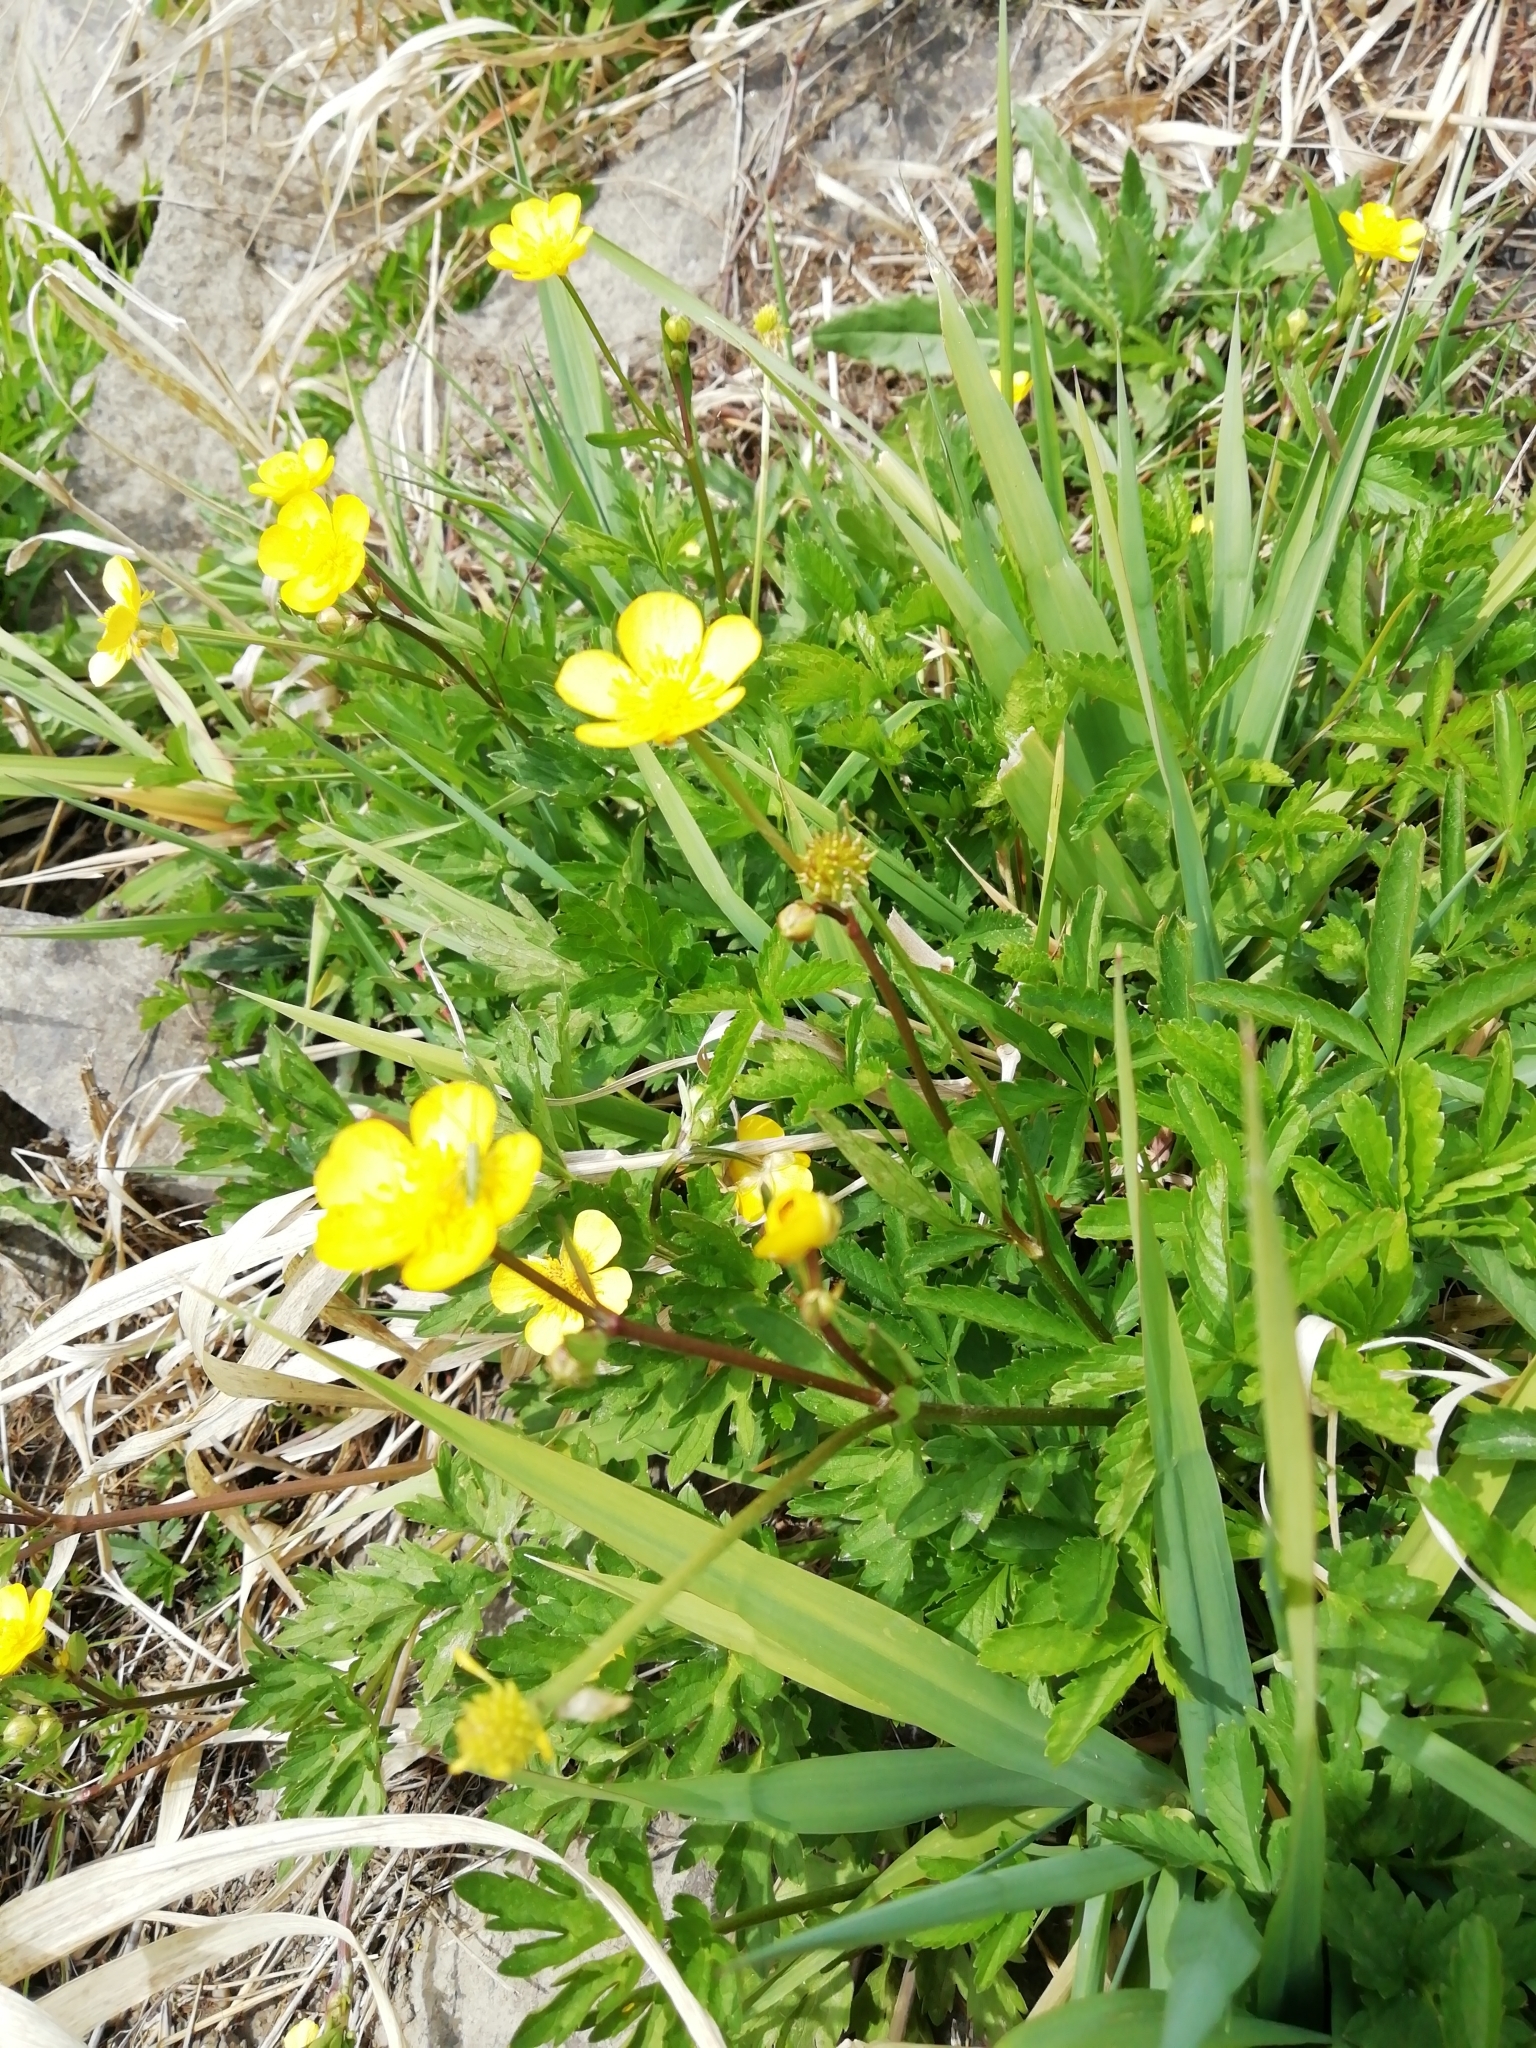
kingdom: Plantae
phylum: Tracheophyta
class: Magnoliopsida
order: Ranunculales
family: Ranunculaceae
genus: Ranunculus
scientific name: Ranunculus repens
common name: Creeping buttercup
